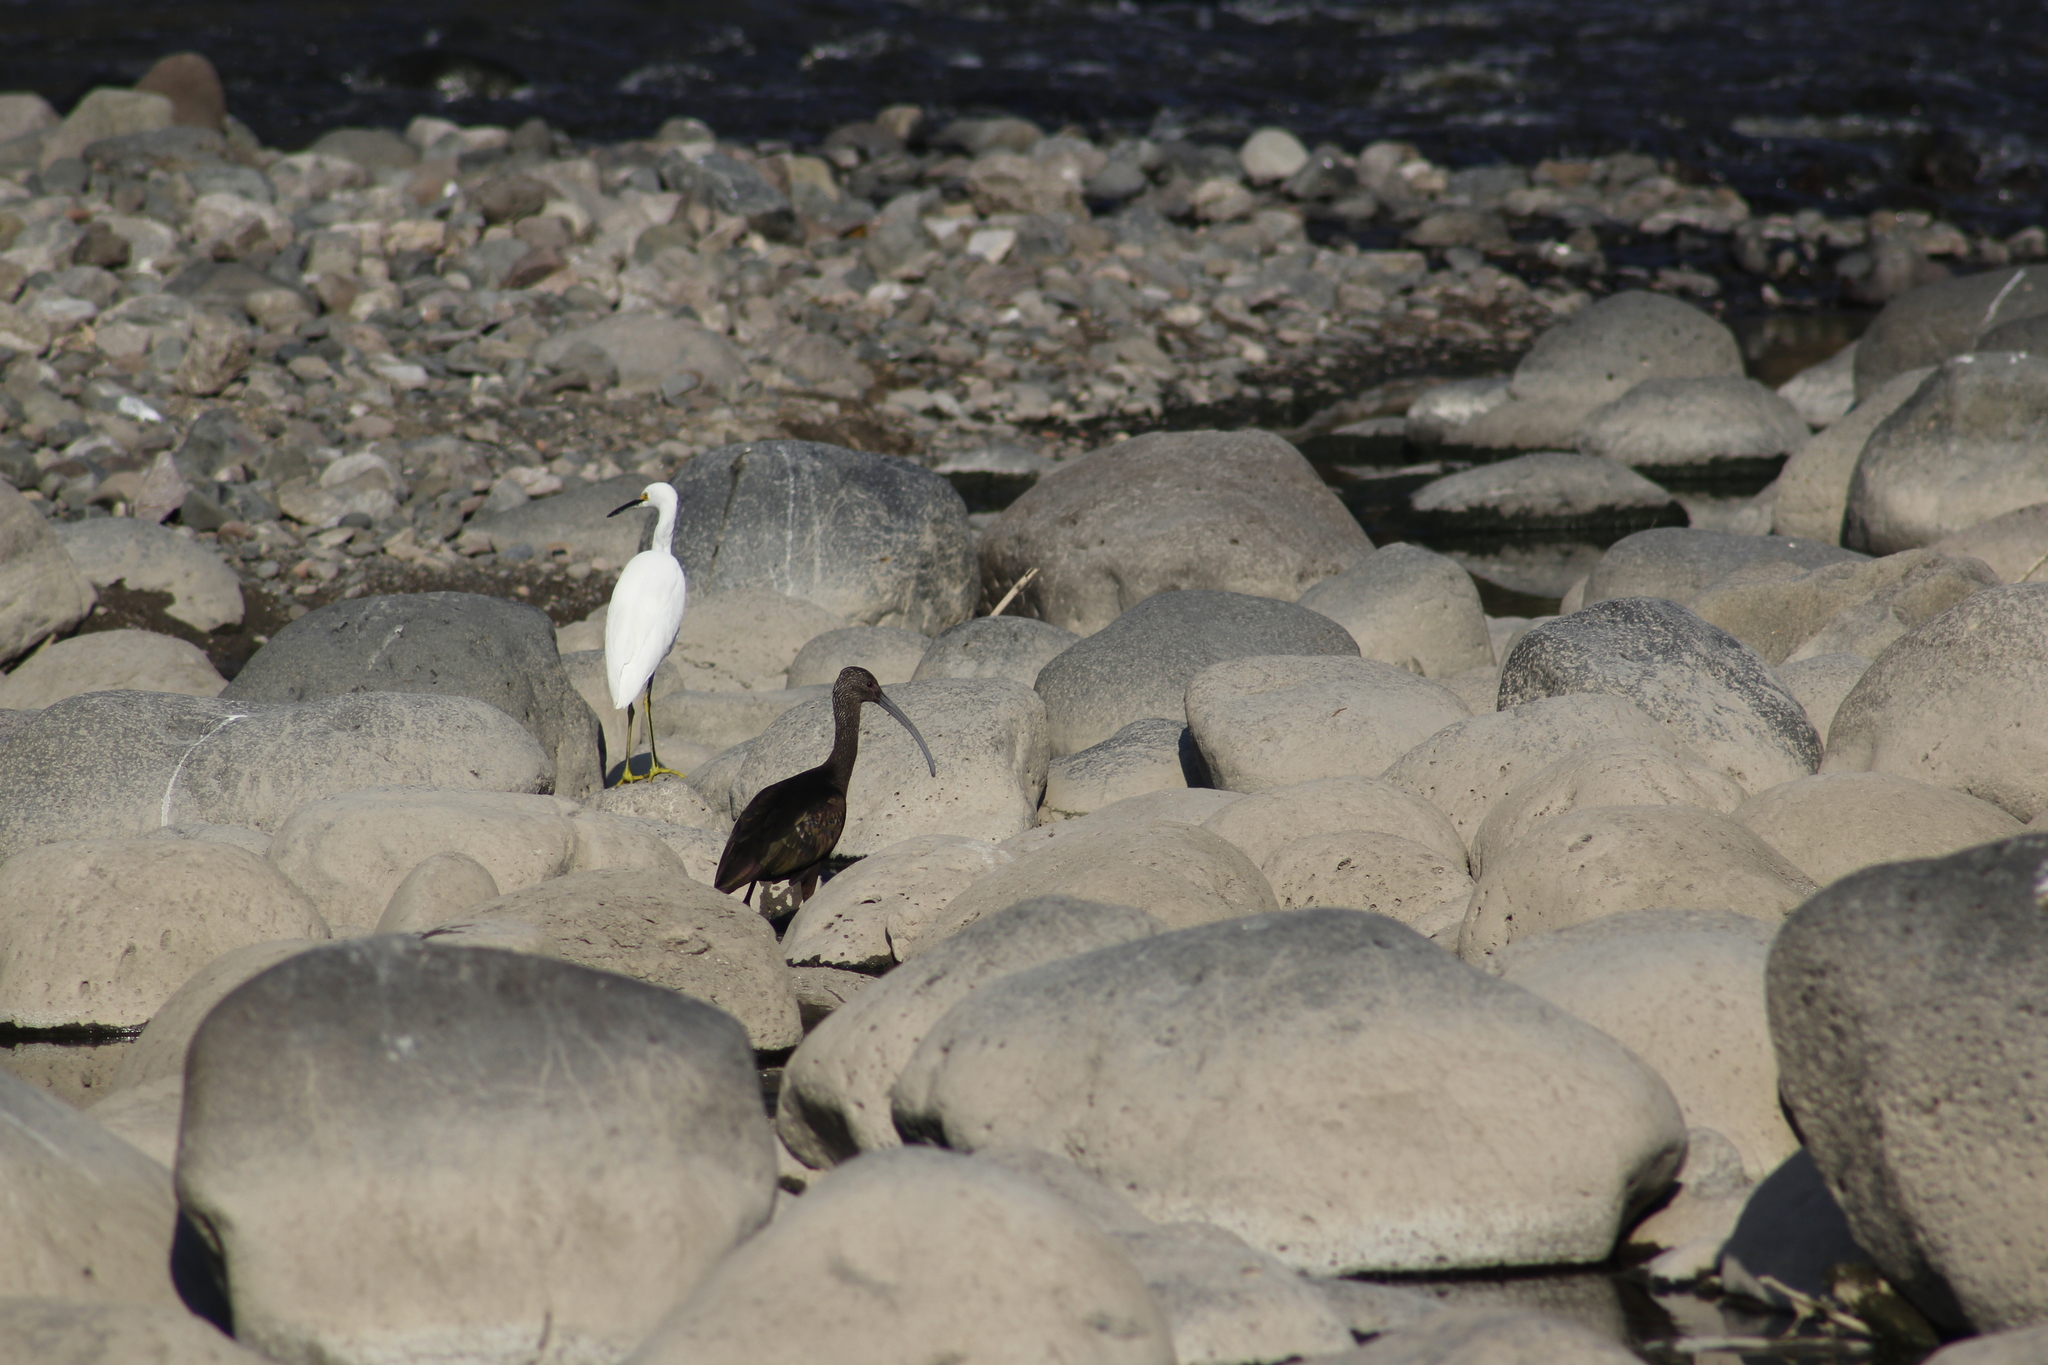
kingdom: Animalia
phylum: Chordata
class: Aves
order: Pelecaniformes
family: Threskiornithidae
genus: Plegadis
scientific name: Plegadis chihi
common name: White-faced ibis
